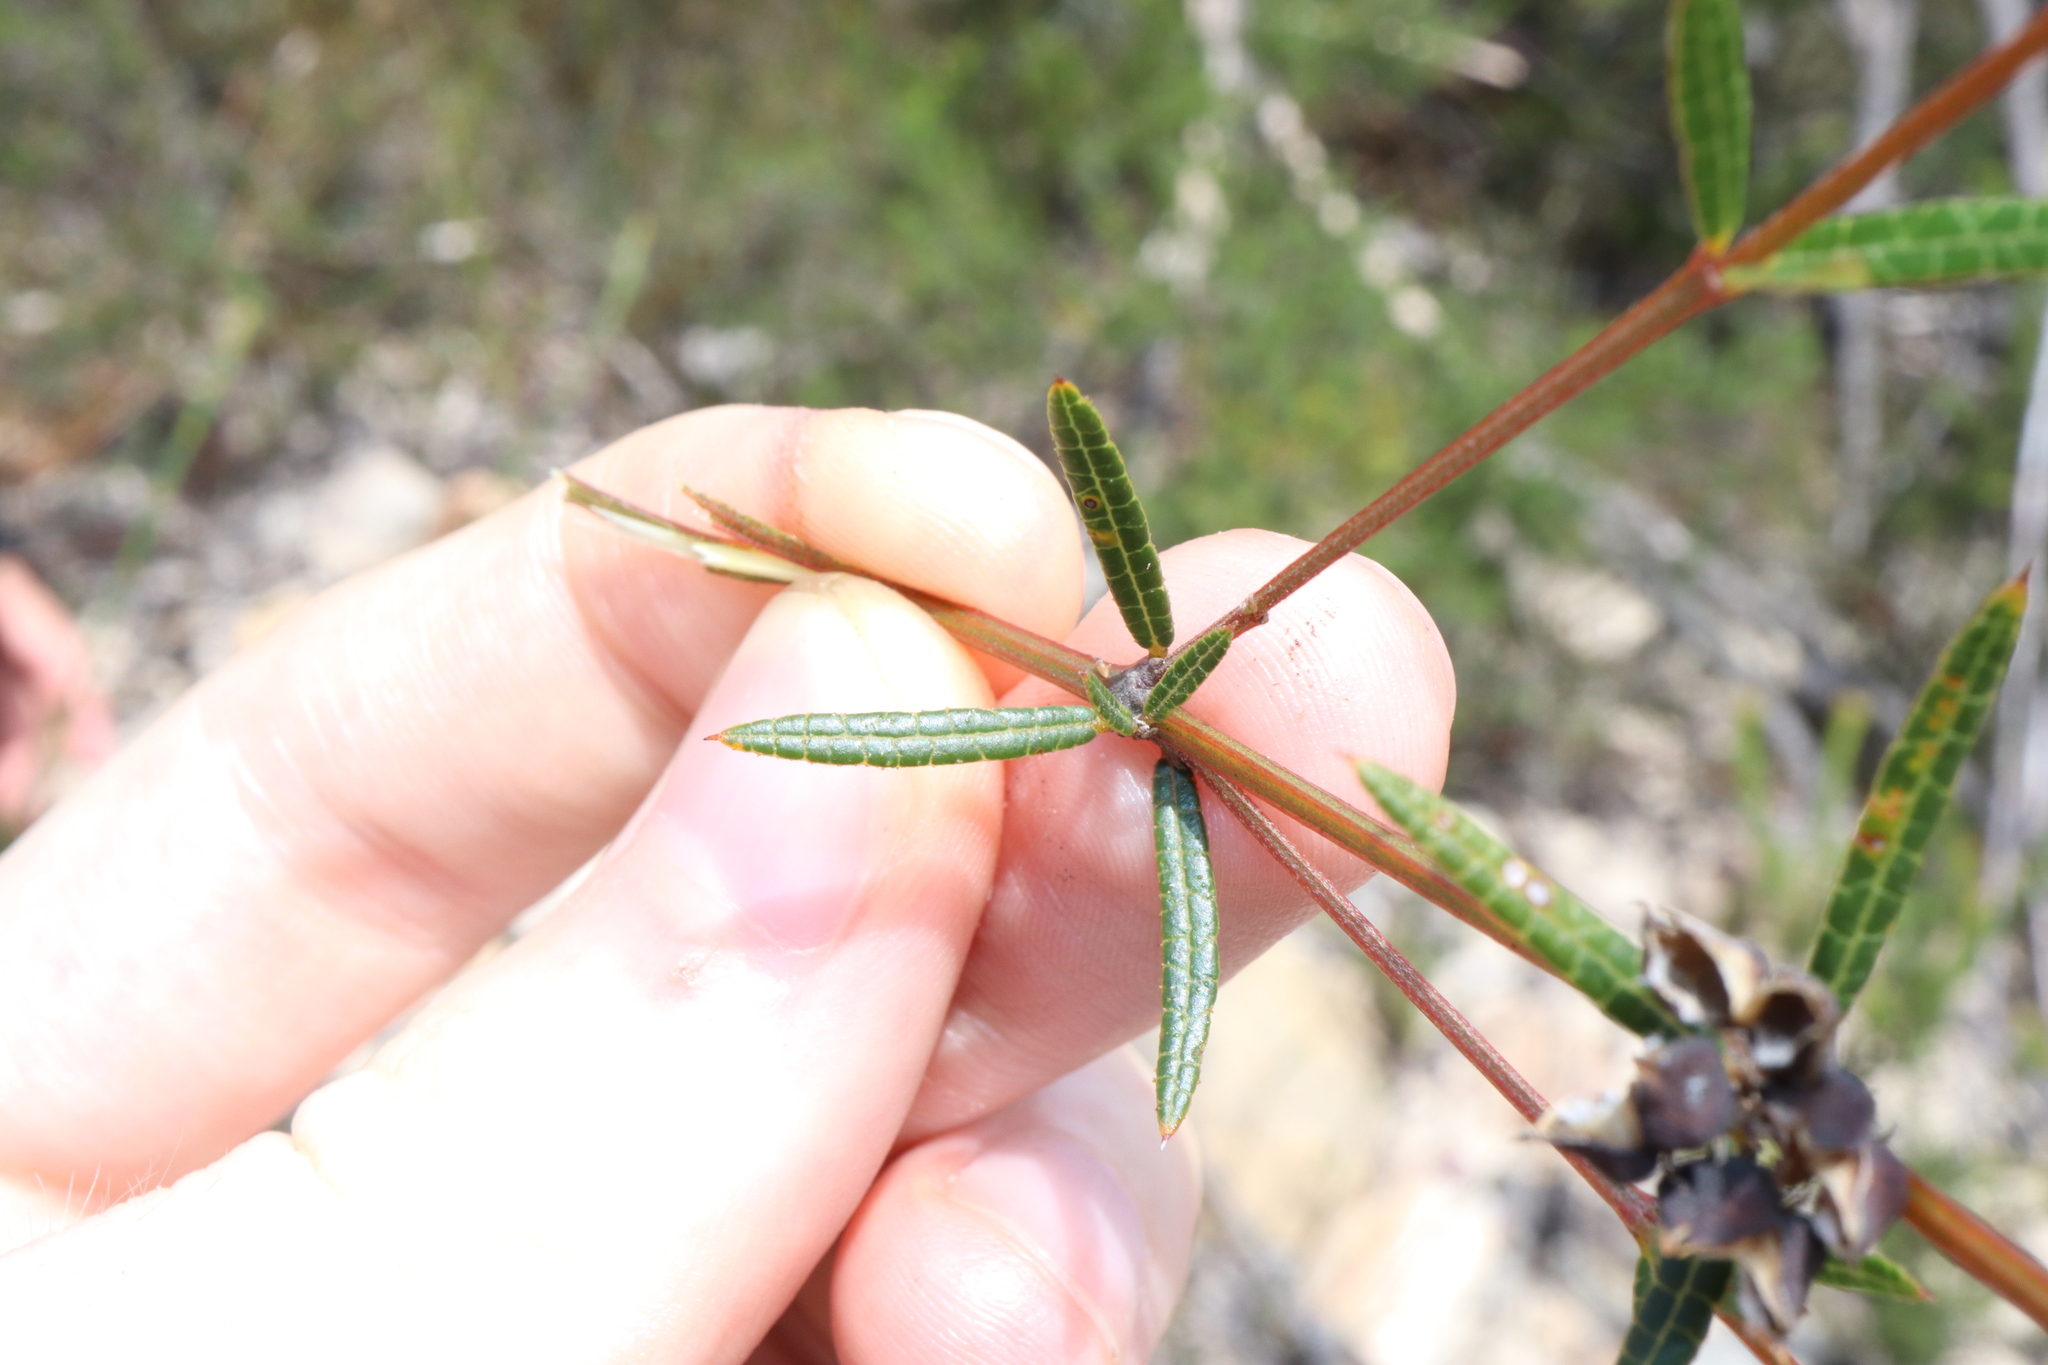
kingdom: Plantae
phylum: Tracheophyta
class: Magnoliopsida
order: Fabales
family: Fabaceae
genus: Mirbelia
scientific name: Mirbelia rubiifolia
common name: Heathy mirbelia
